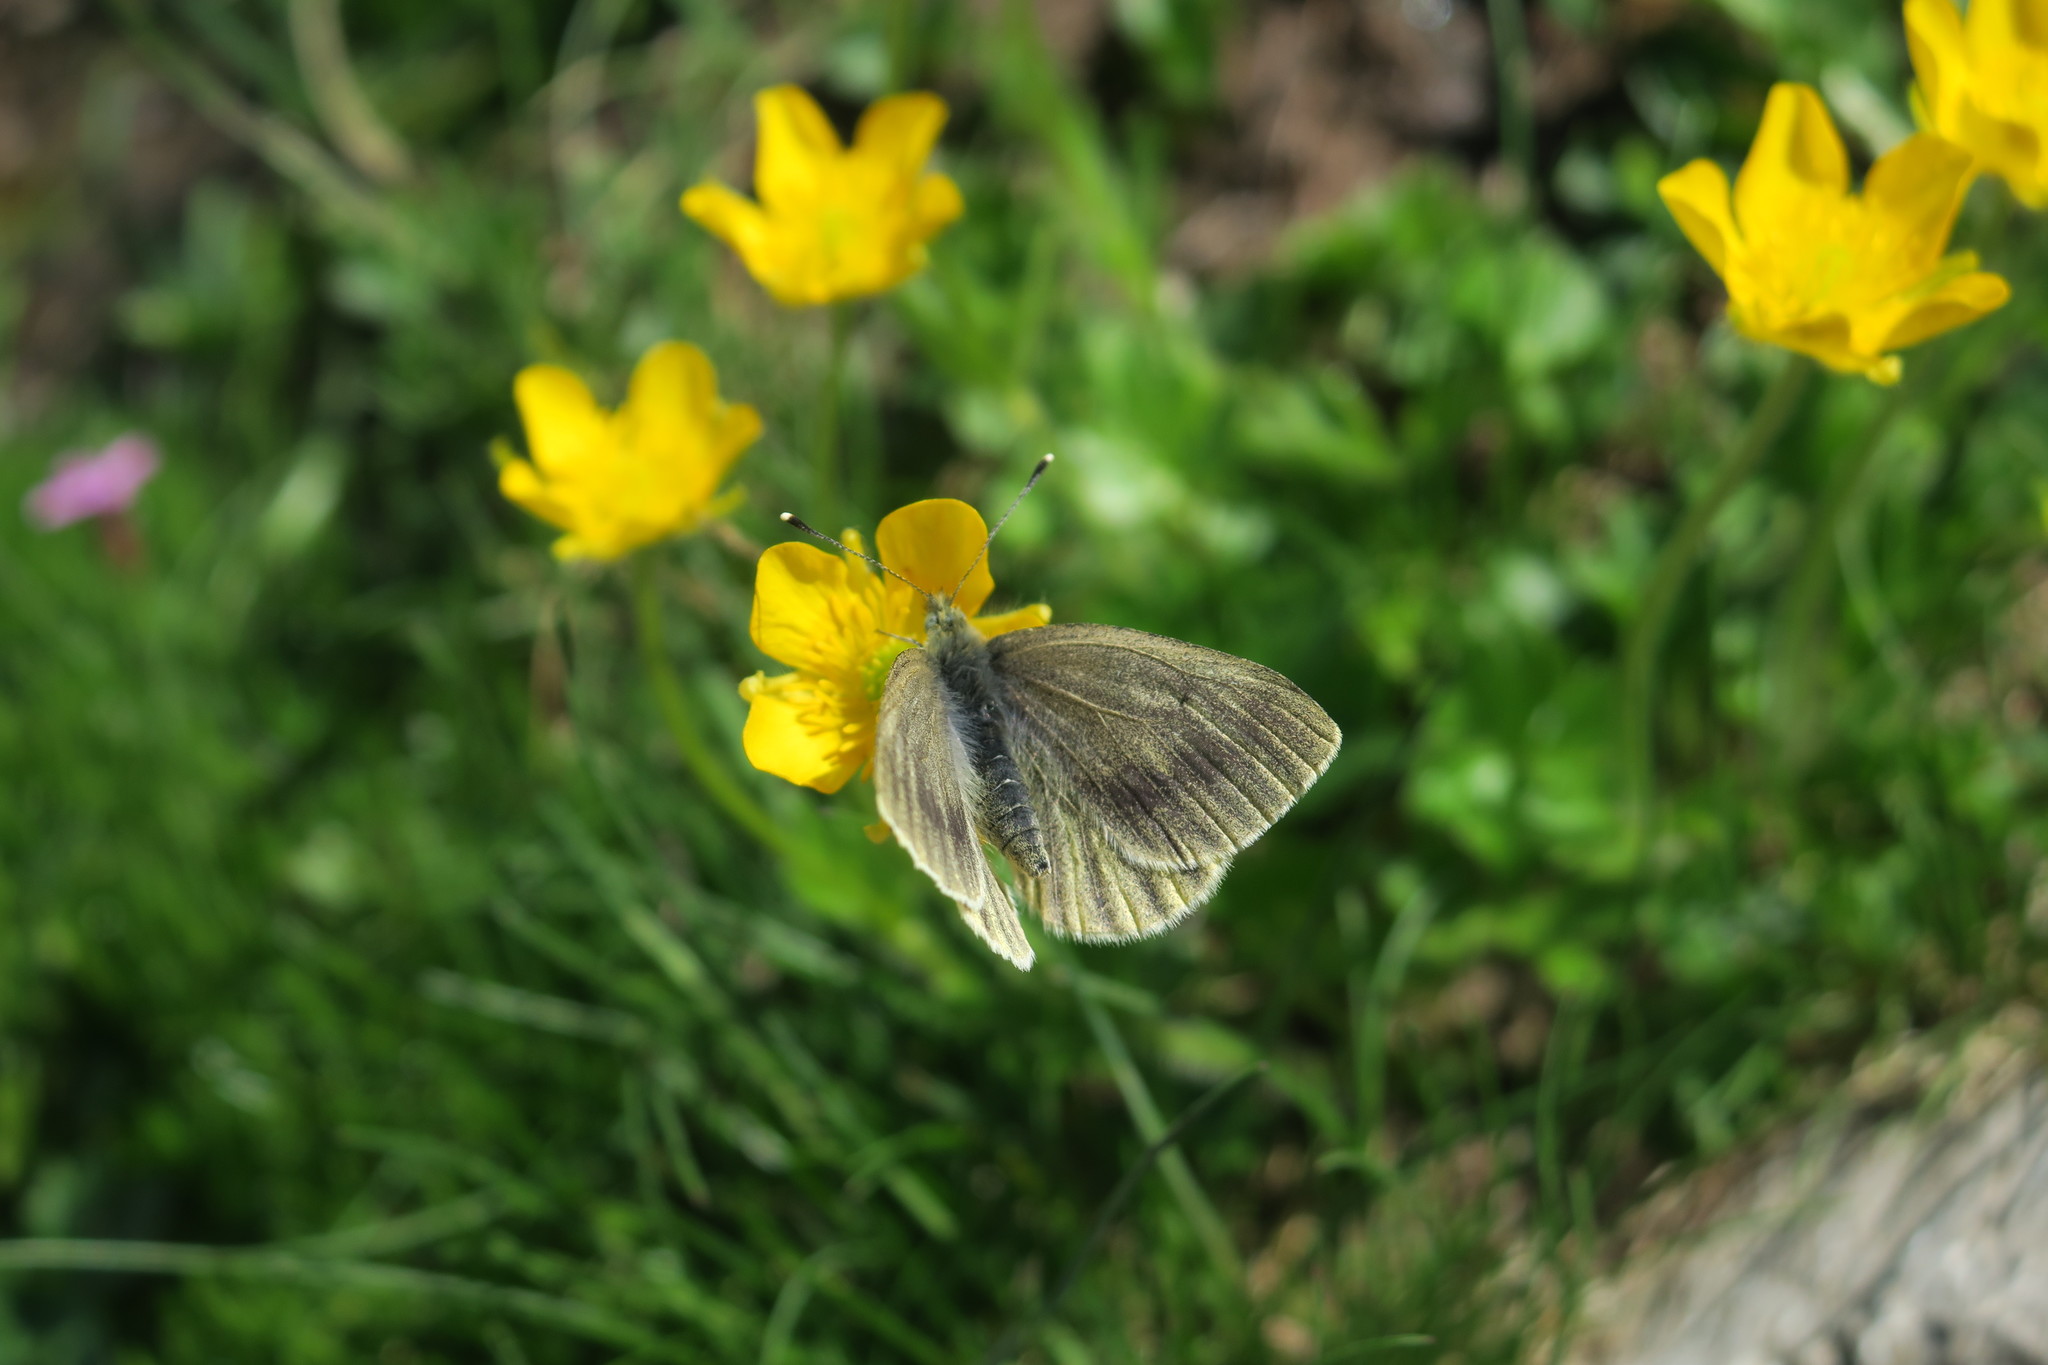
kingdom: Animalia
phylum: Arthropoda
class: Insecta
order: Lepidoptera
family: Pieridae
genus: Pieris
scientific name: Pieris bryoniae
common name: Mountain green-veined white
